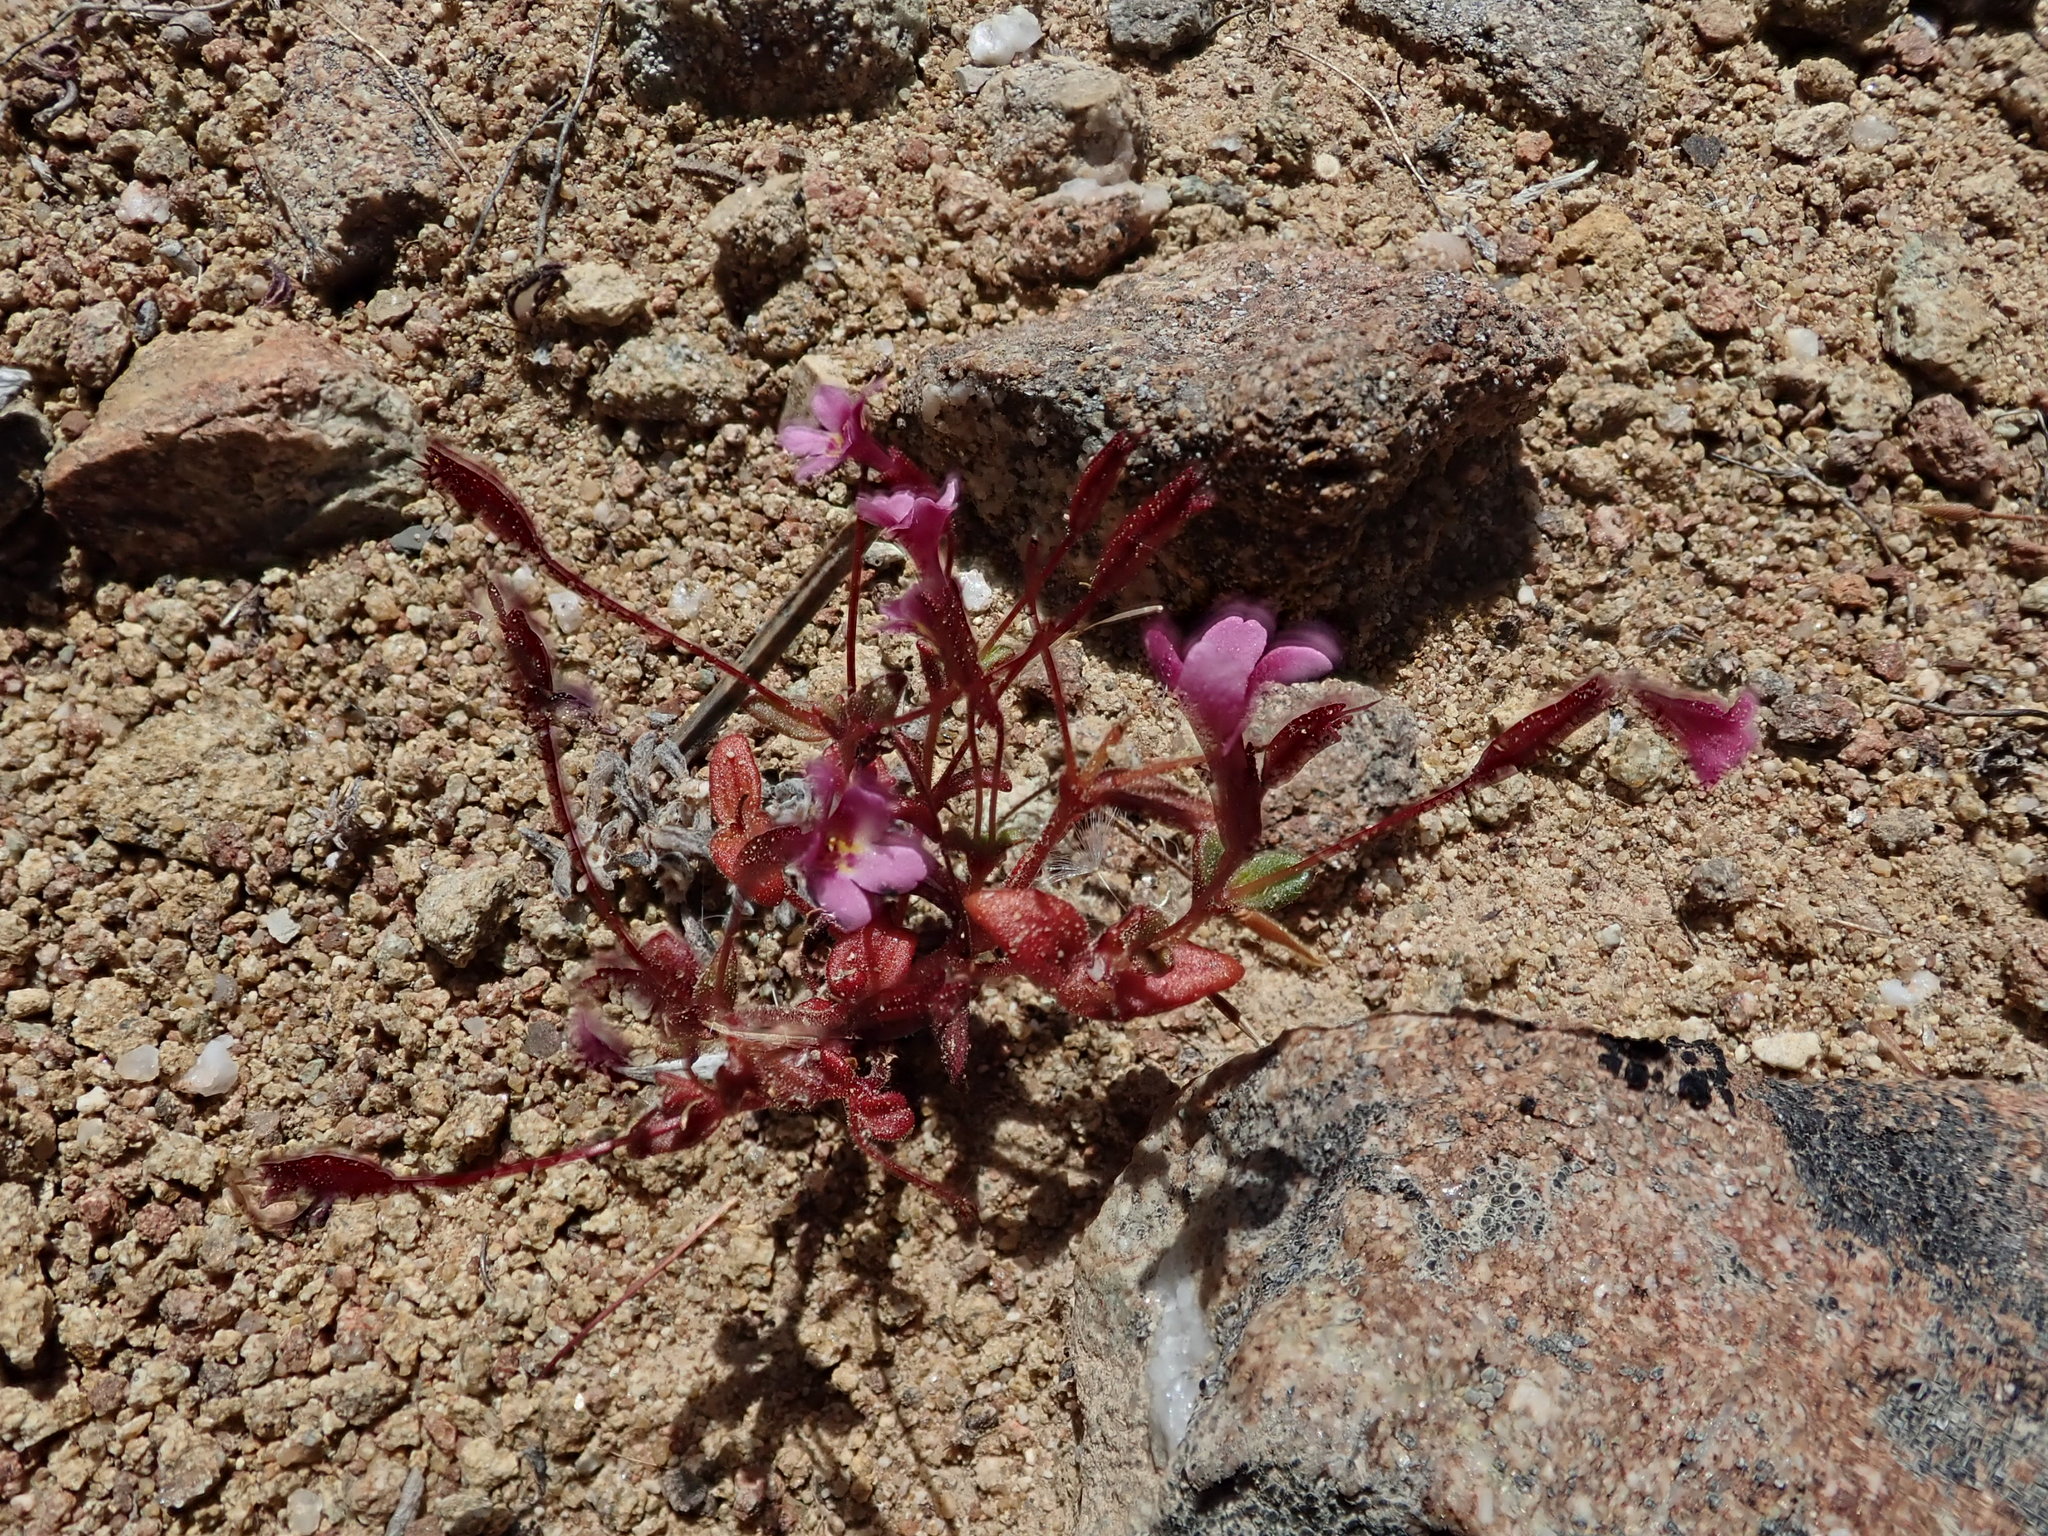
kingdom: Plantae
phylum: Tracheophyta
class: Magnoliopsida
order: Lamiales
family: Phrymaceae
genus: Erythranthe
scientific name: Erythranthe androsacea
